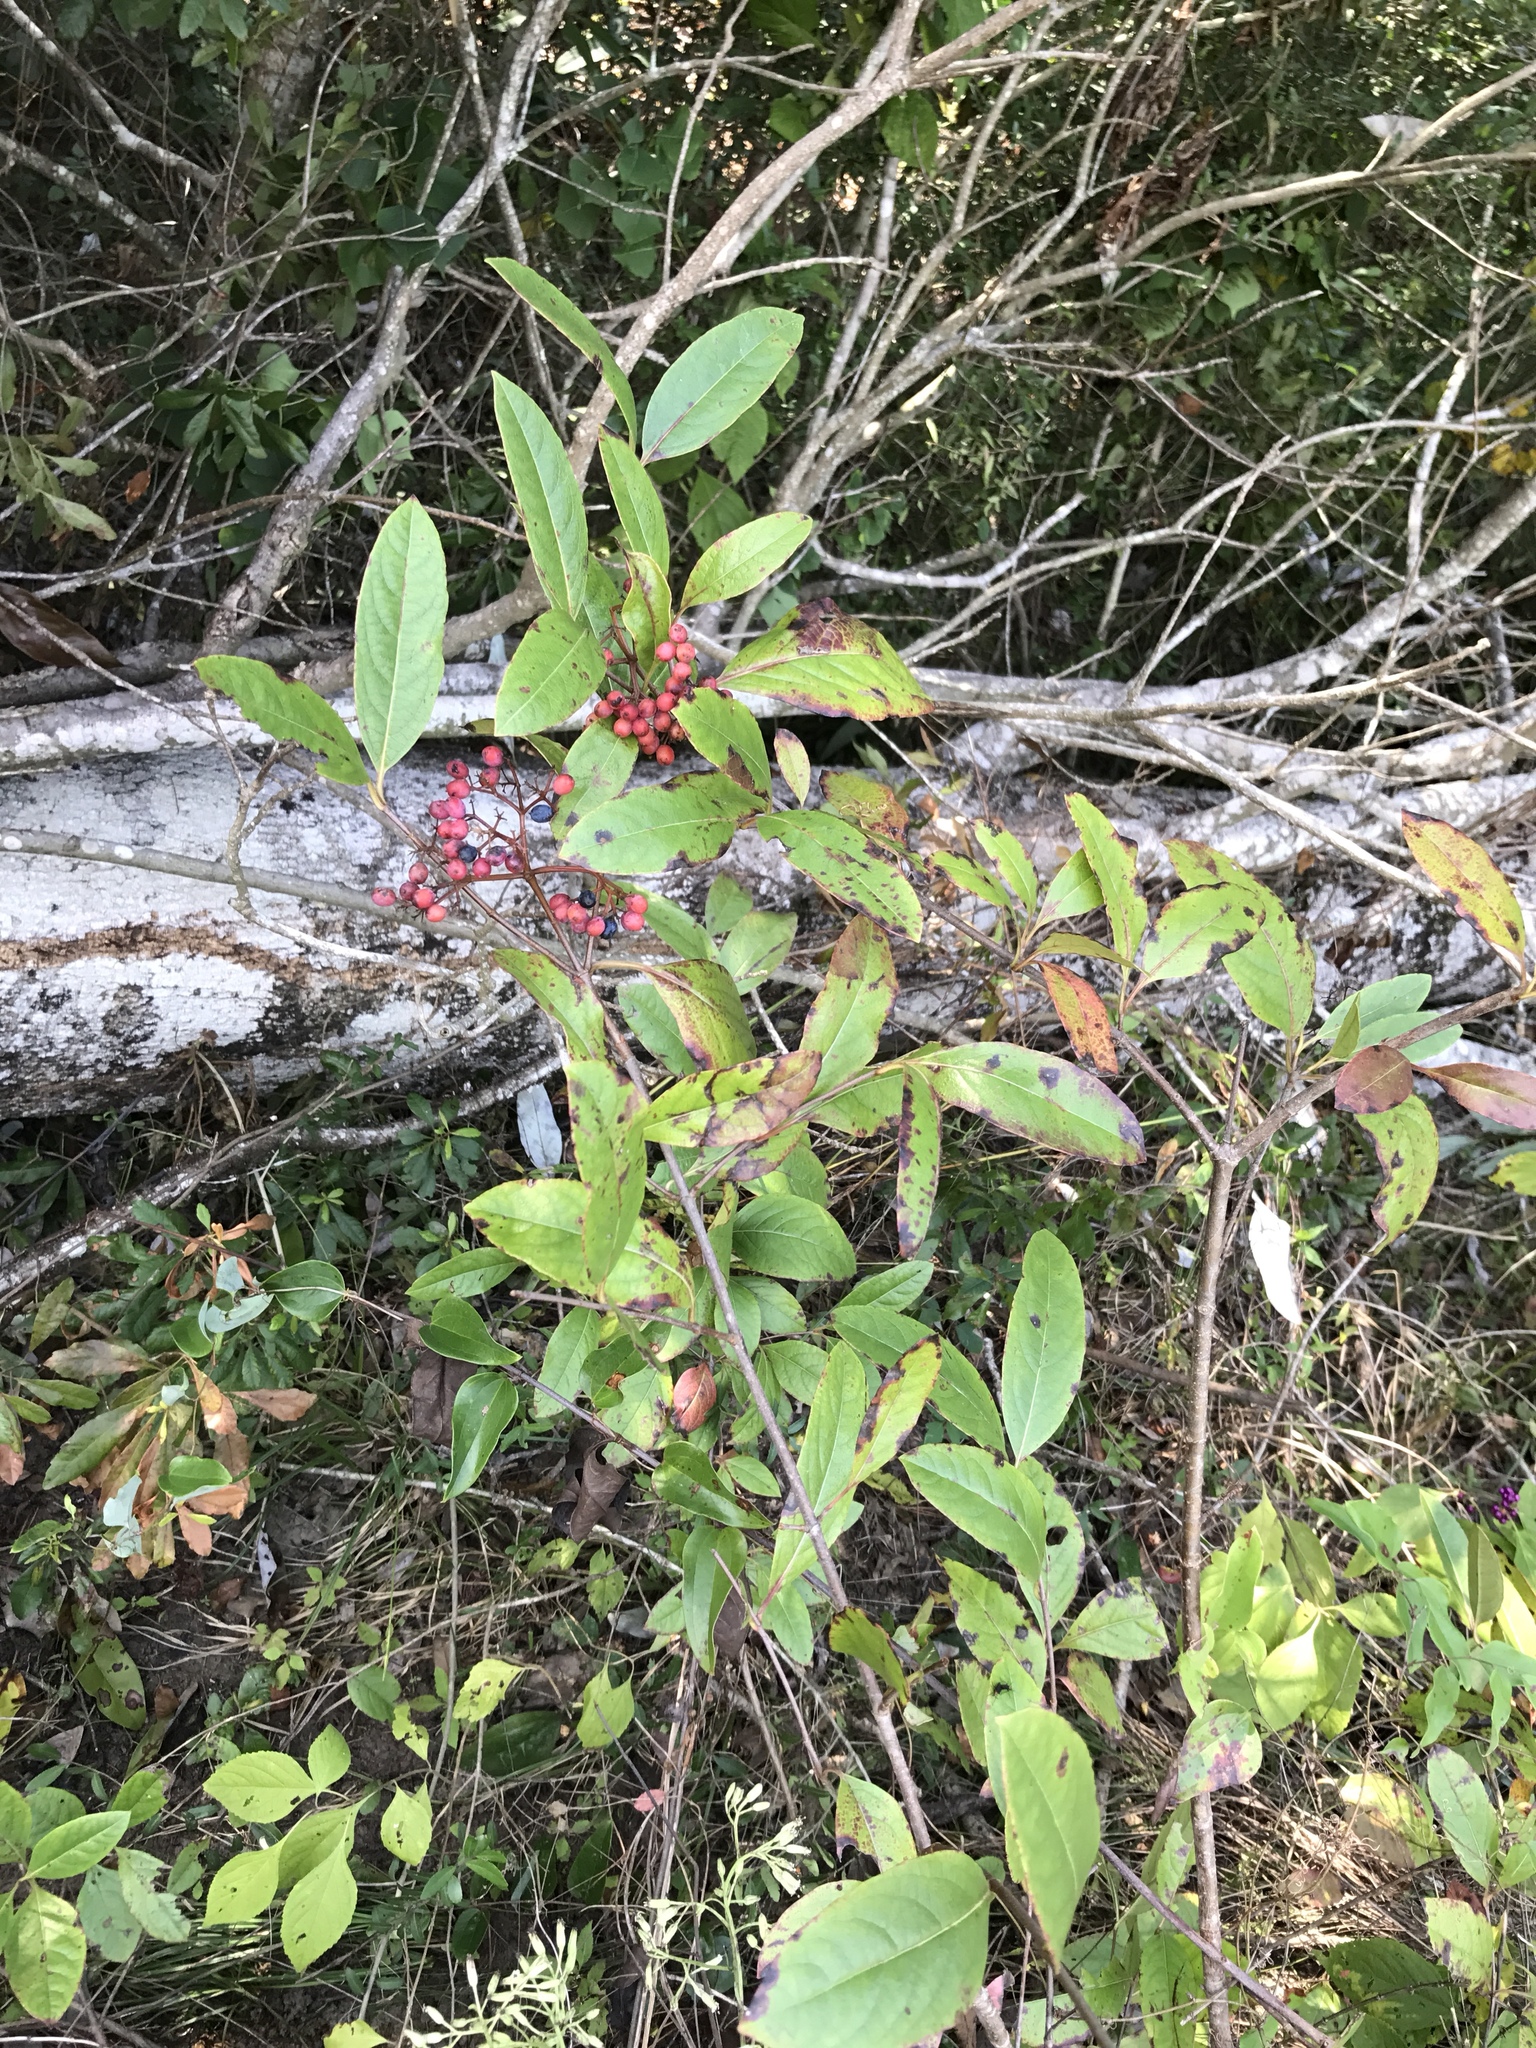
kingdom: Plantae
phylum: Tracheophyta
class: Magnoliopsida
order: Dipsacales
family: Viburnaceae
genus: Viburnum
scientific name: Viburnum cassinoides
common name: Swamp haw
